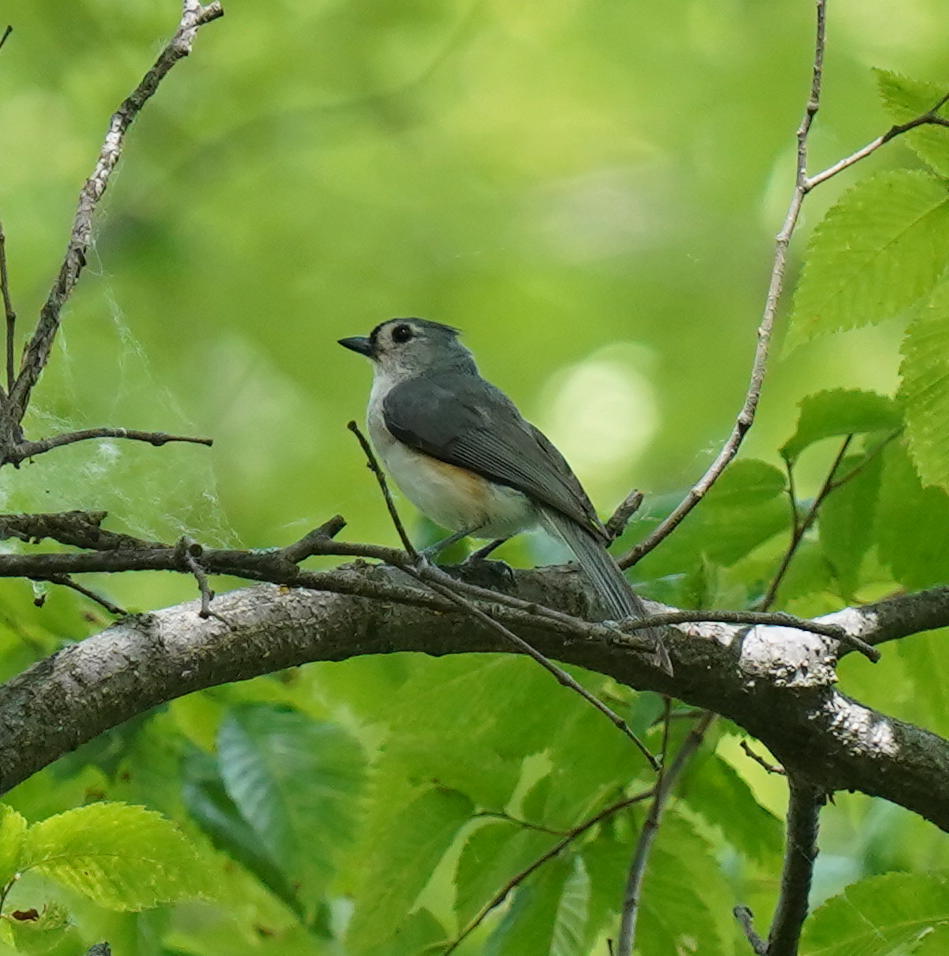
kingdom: Animalia
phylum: Chordata
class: Aves
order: Passeriformes
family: Paridae
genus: Baeolophus
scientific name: Baeolophus bicolor
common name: Tufted titmouse
